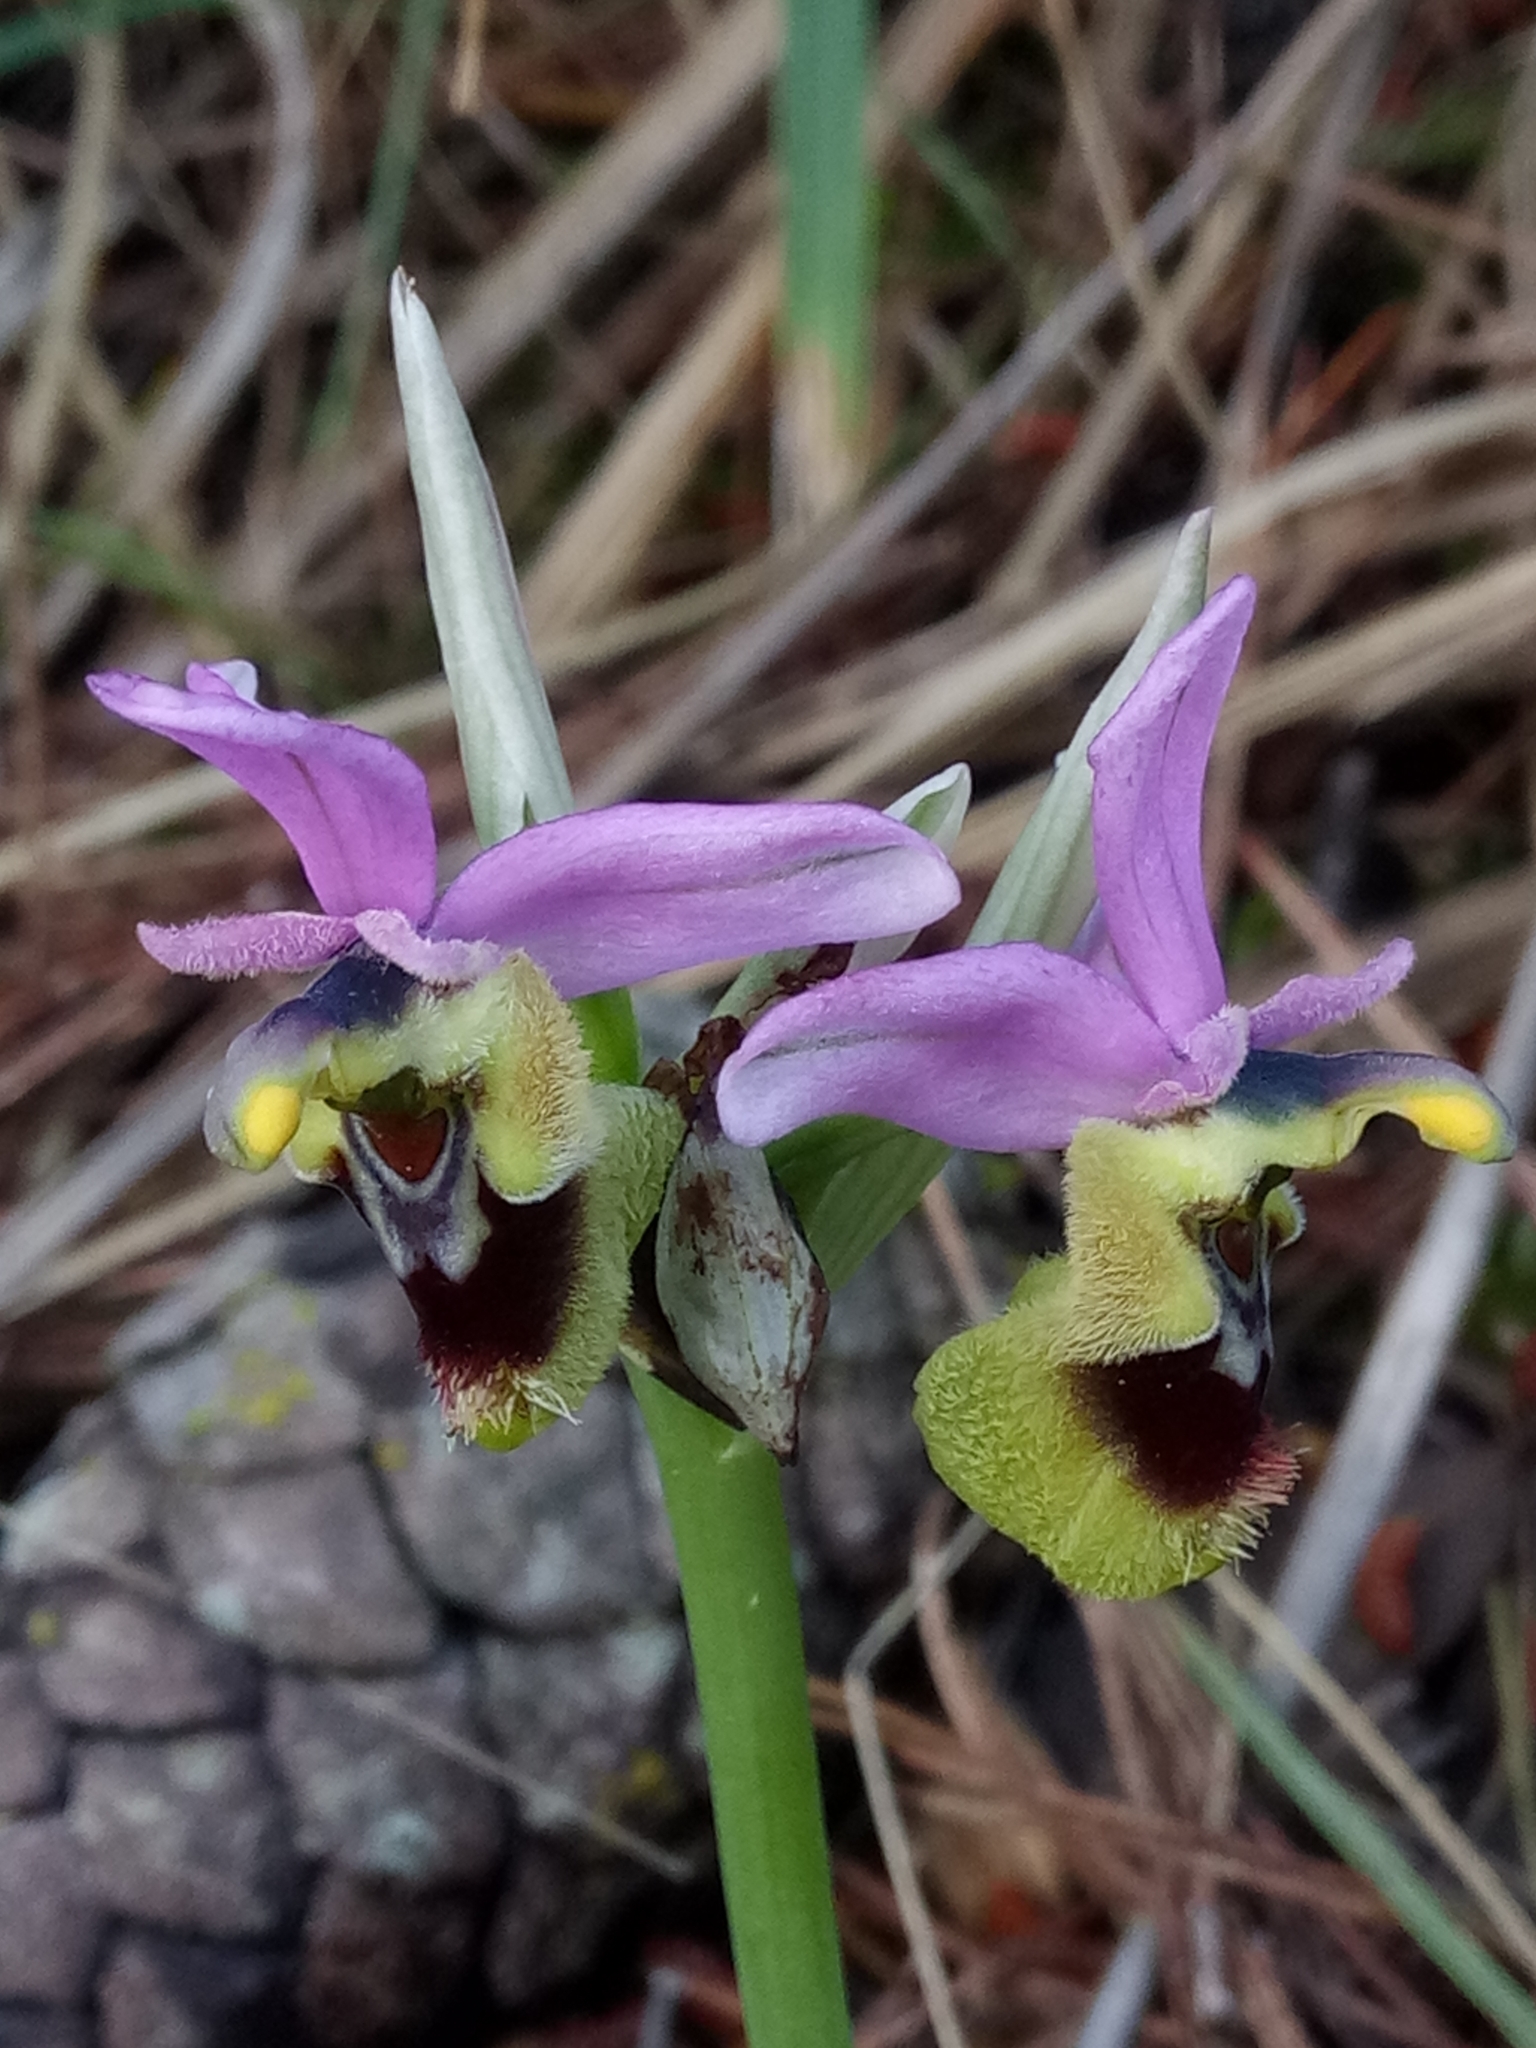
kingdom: Plantae
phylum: Tracheophyta
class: Liliopsida
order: Asparagales
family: Orchidaceae
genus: Ophrys
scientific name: Ophrys tenthredinifera
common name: Sawfly orchid
